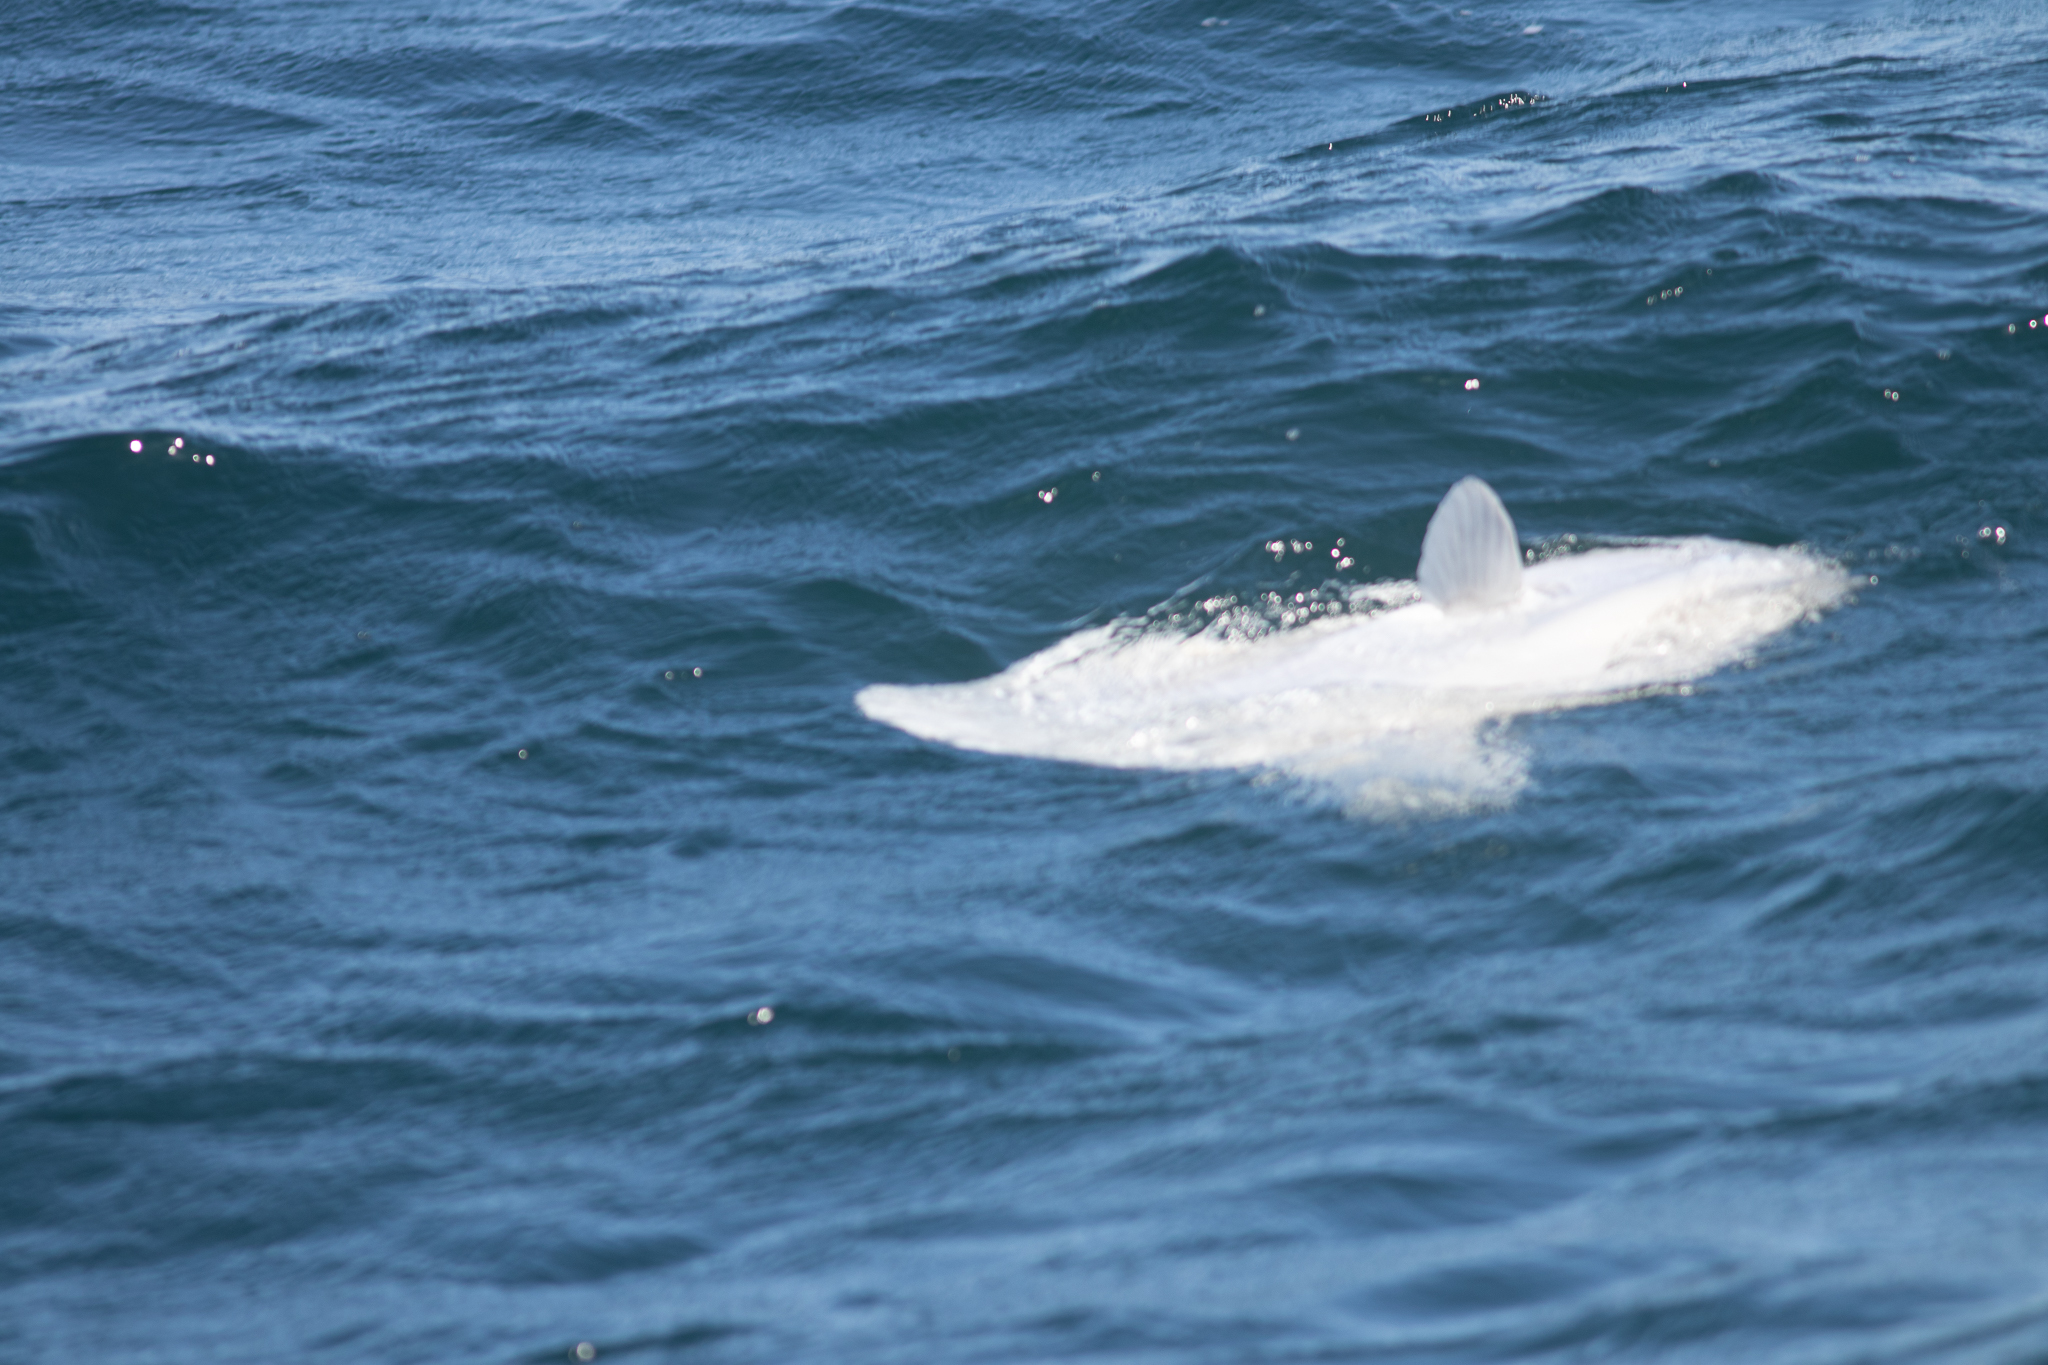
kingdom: Animalia
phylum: Chordata
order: Tetraodontiformes
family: Molidae
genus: Mola
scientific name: Mola mola
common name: Ocean sunfish
